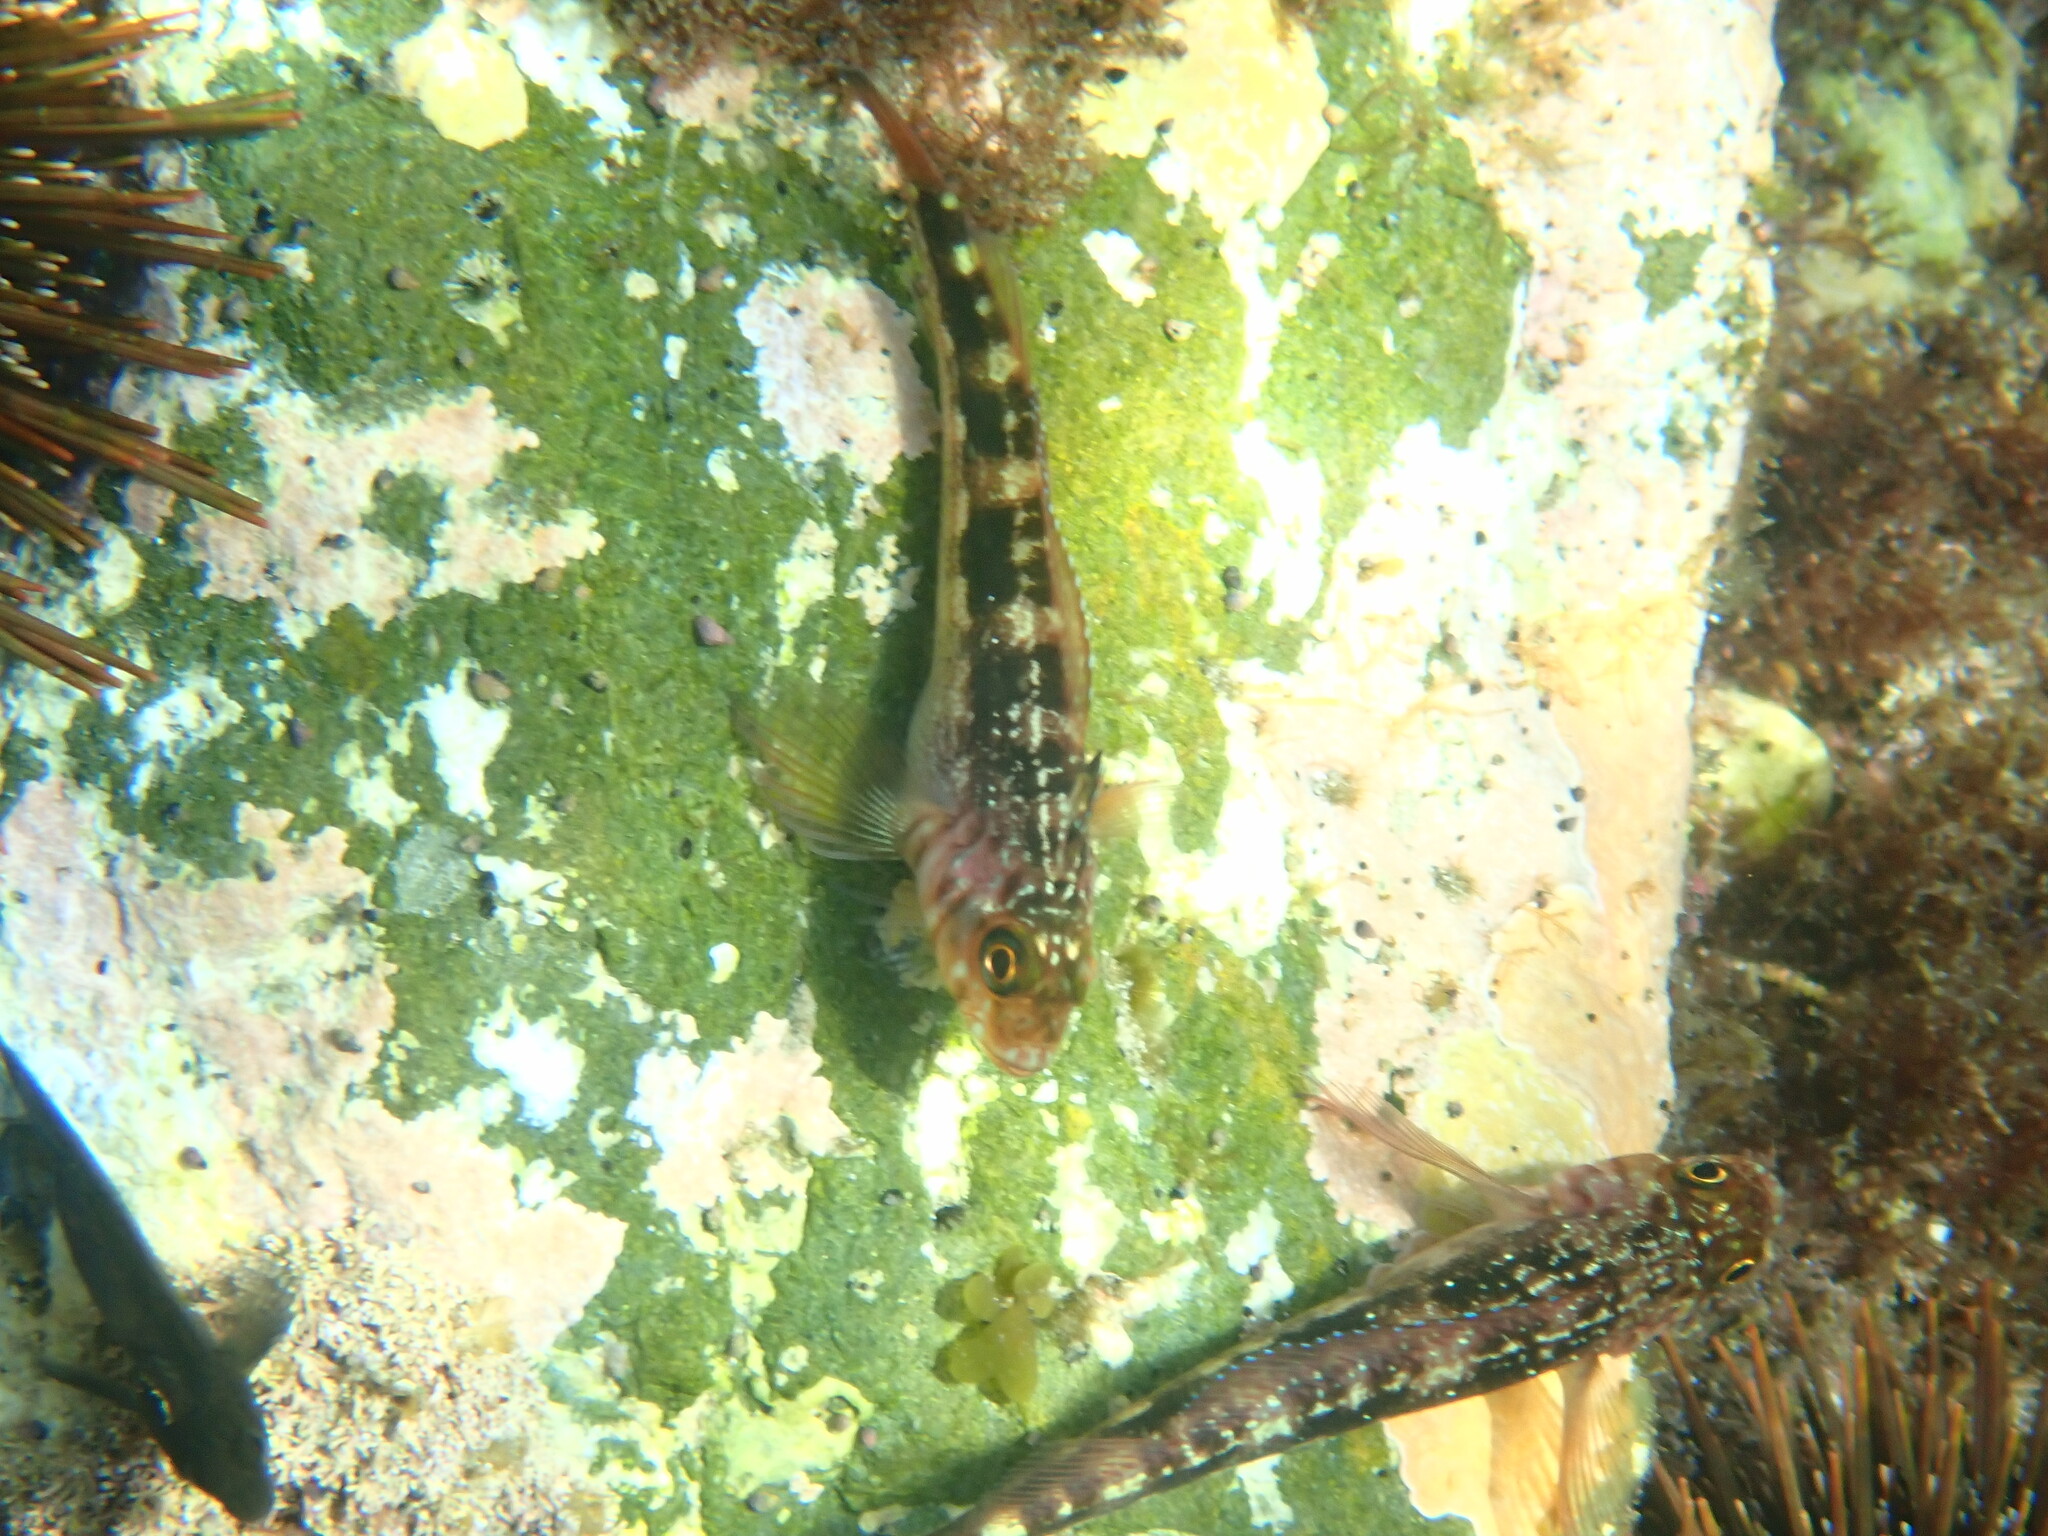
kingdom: Animalia
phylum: Chordata
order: Perciformes
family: Tripterygiidae
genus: Forsterygion
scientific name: Forsterygion varium
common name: Variable triplefin
